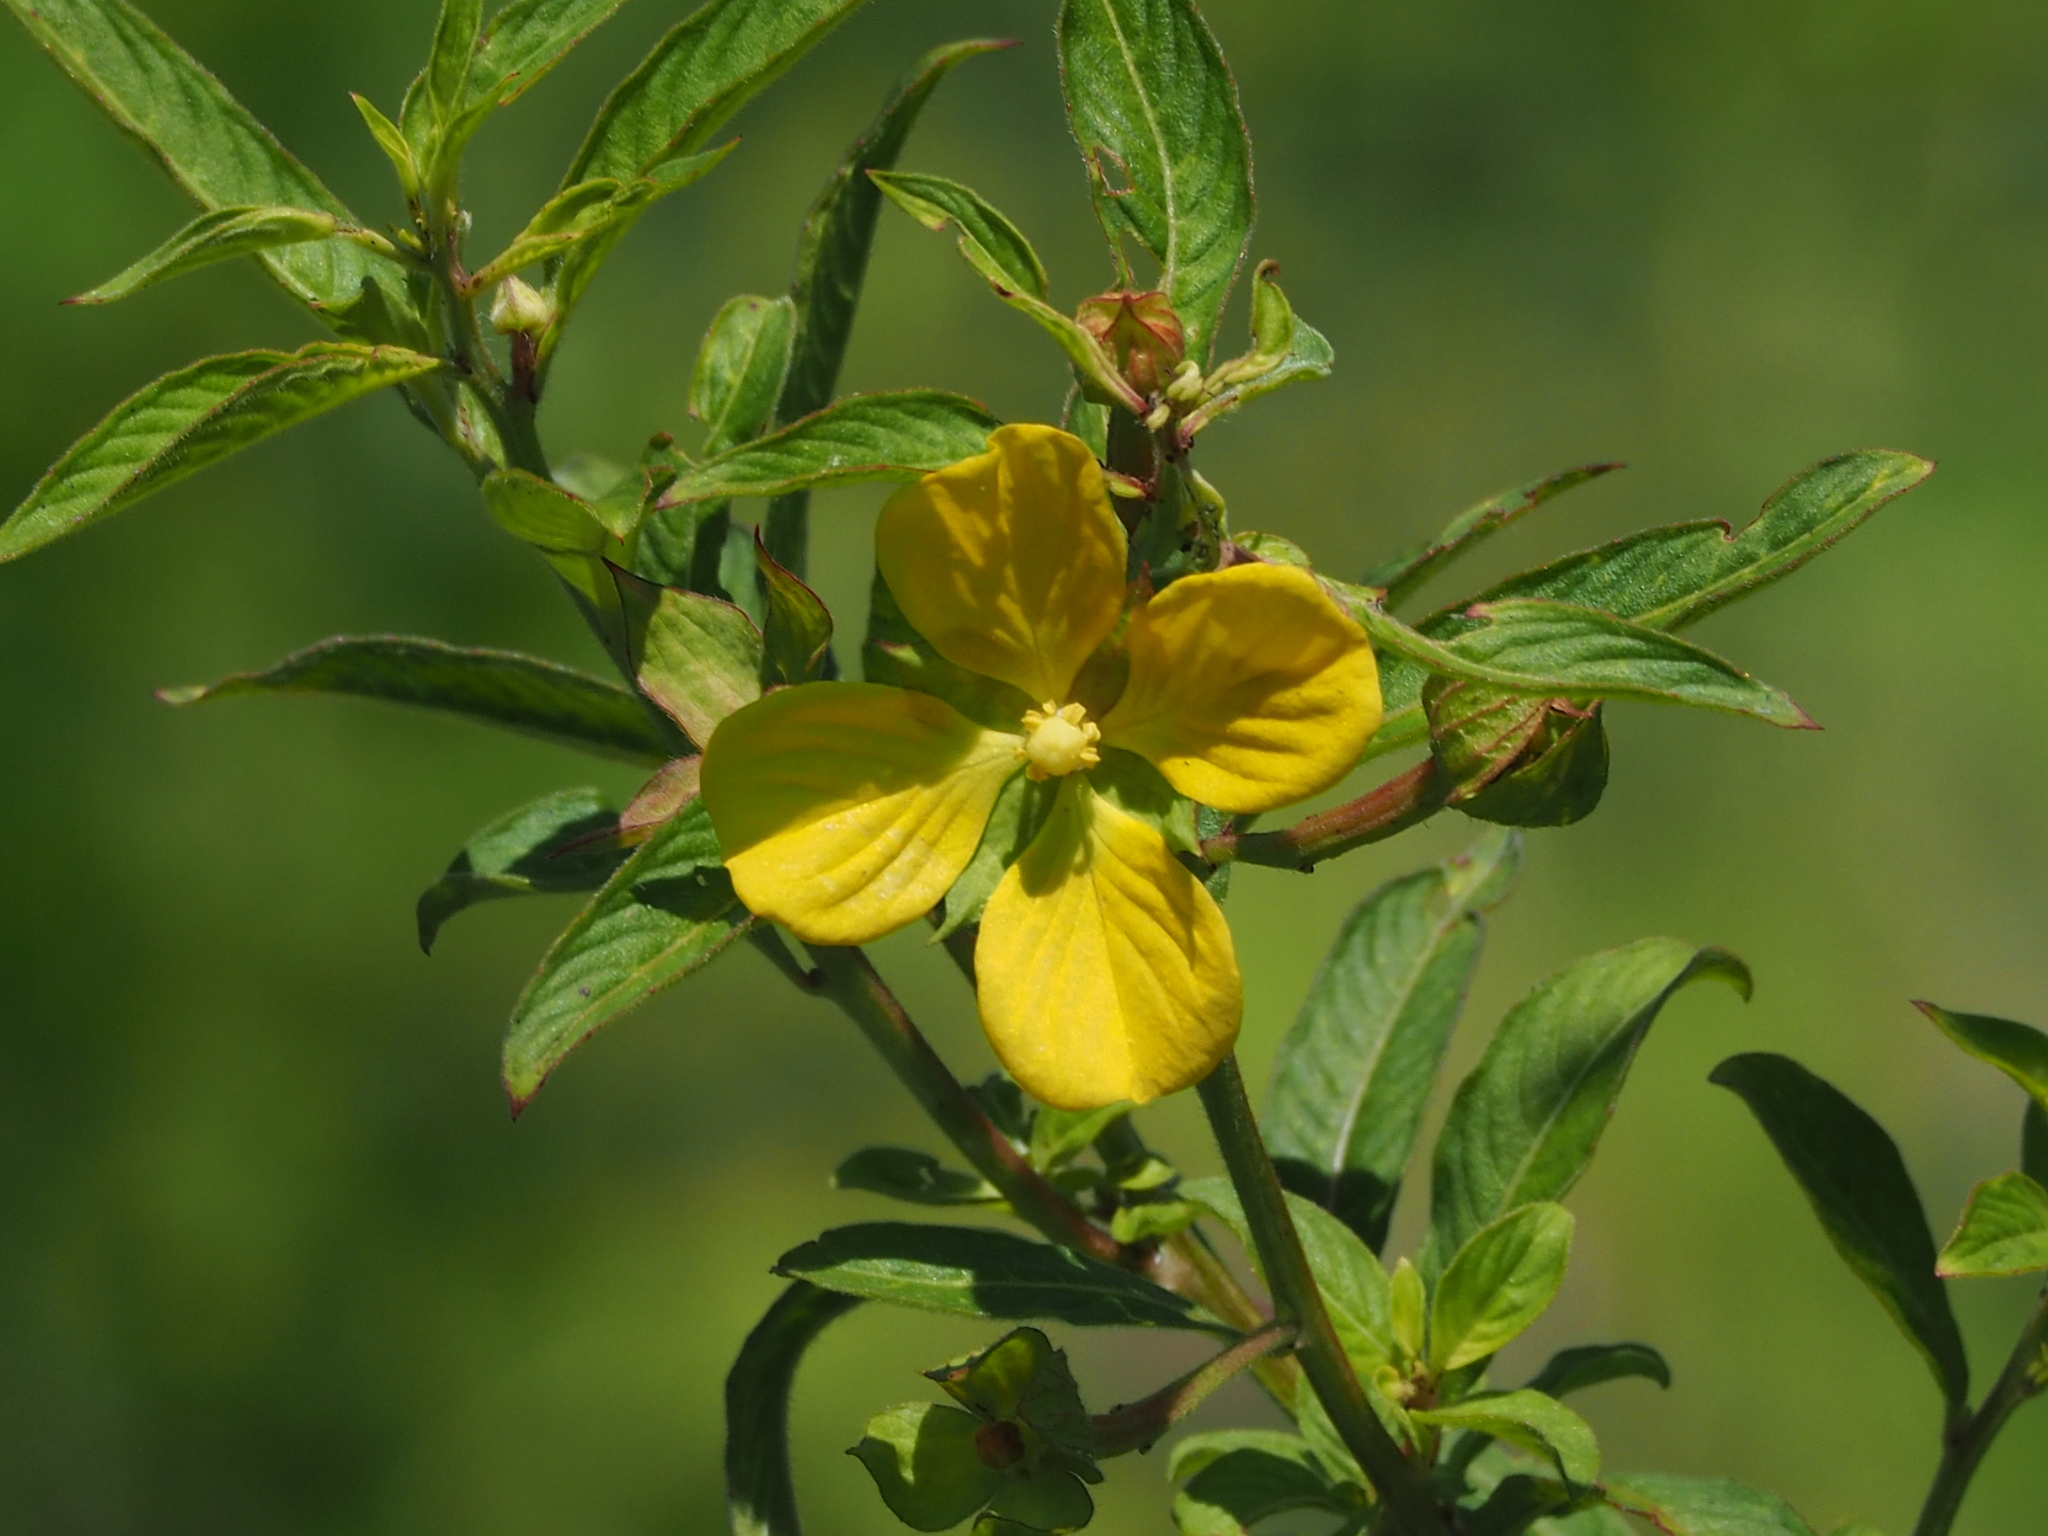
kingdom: Plantae
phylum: Tracheophyta
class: Magnoliopsida
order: Myrtales
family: Onagraceae
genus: Ludwigia
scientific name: Ludwigia octovalvis
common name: Water-primrose
